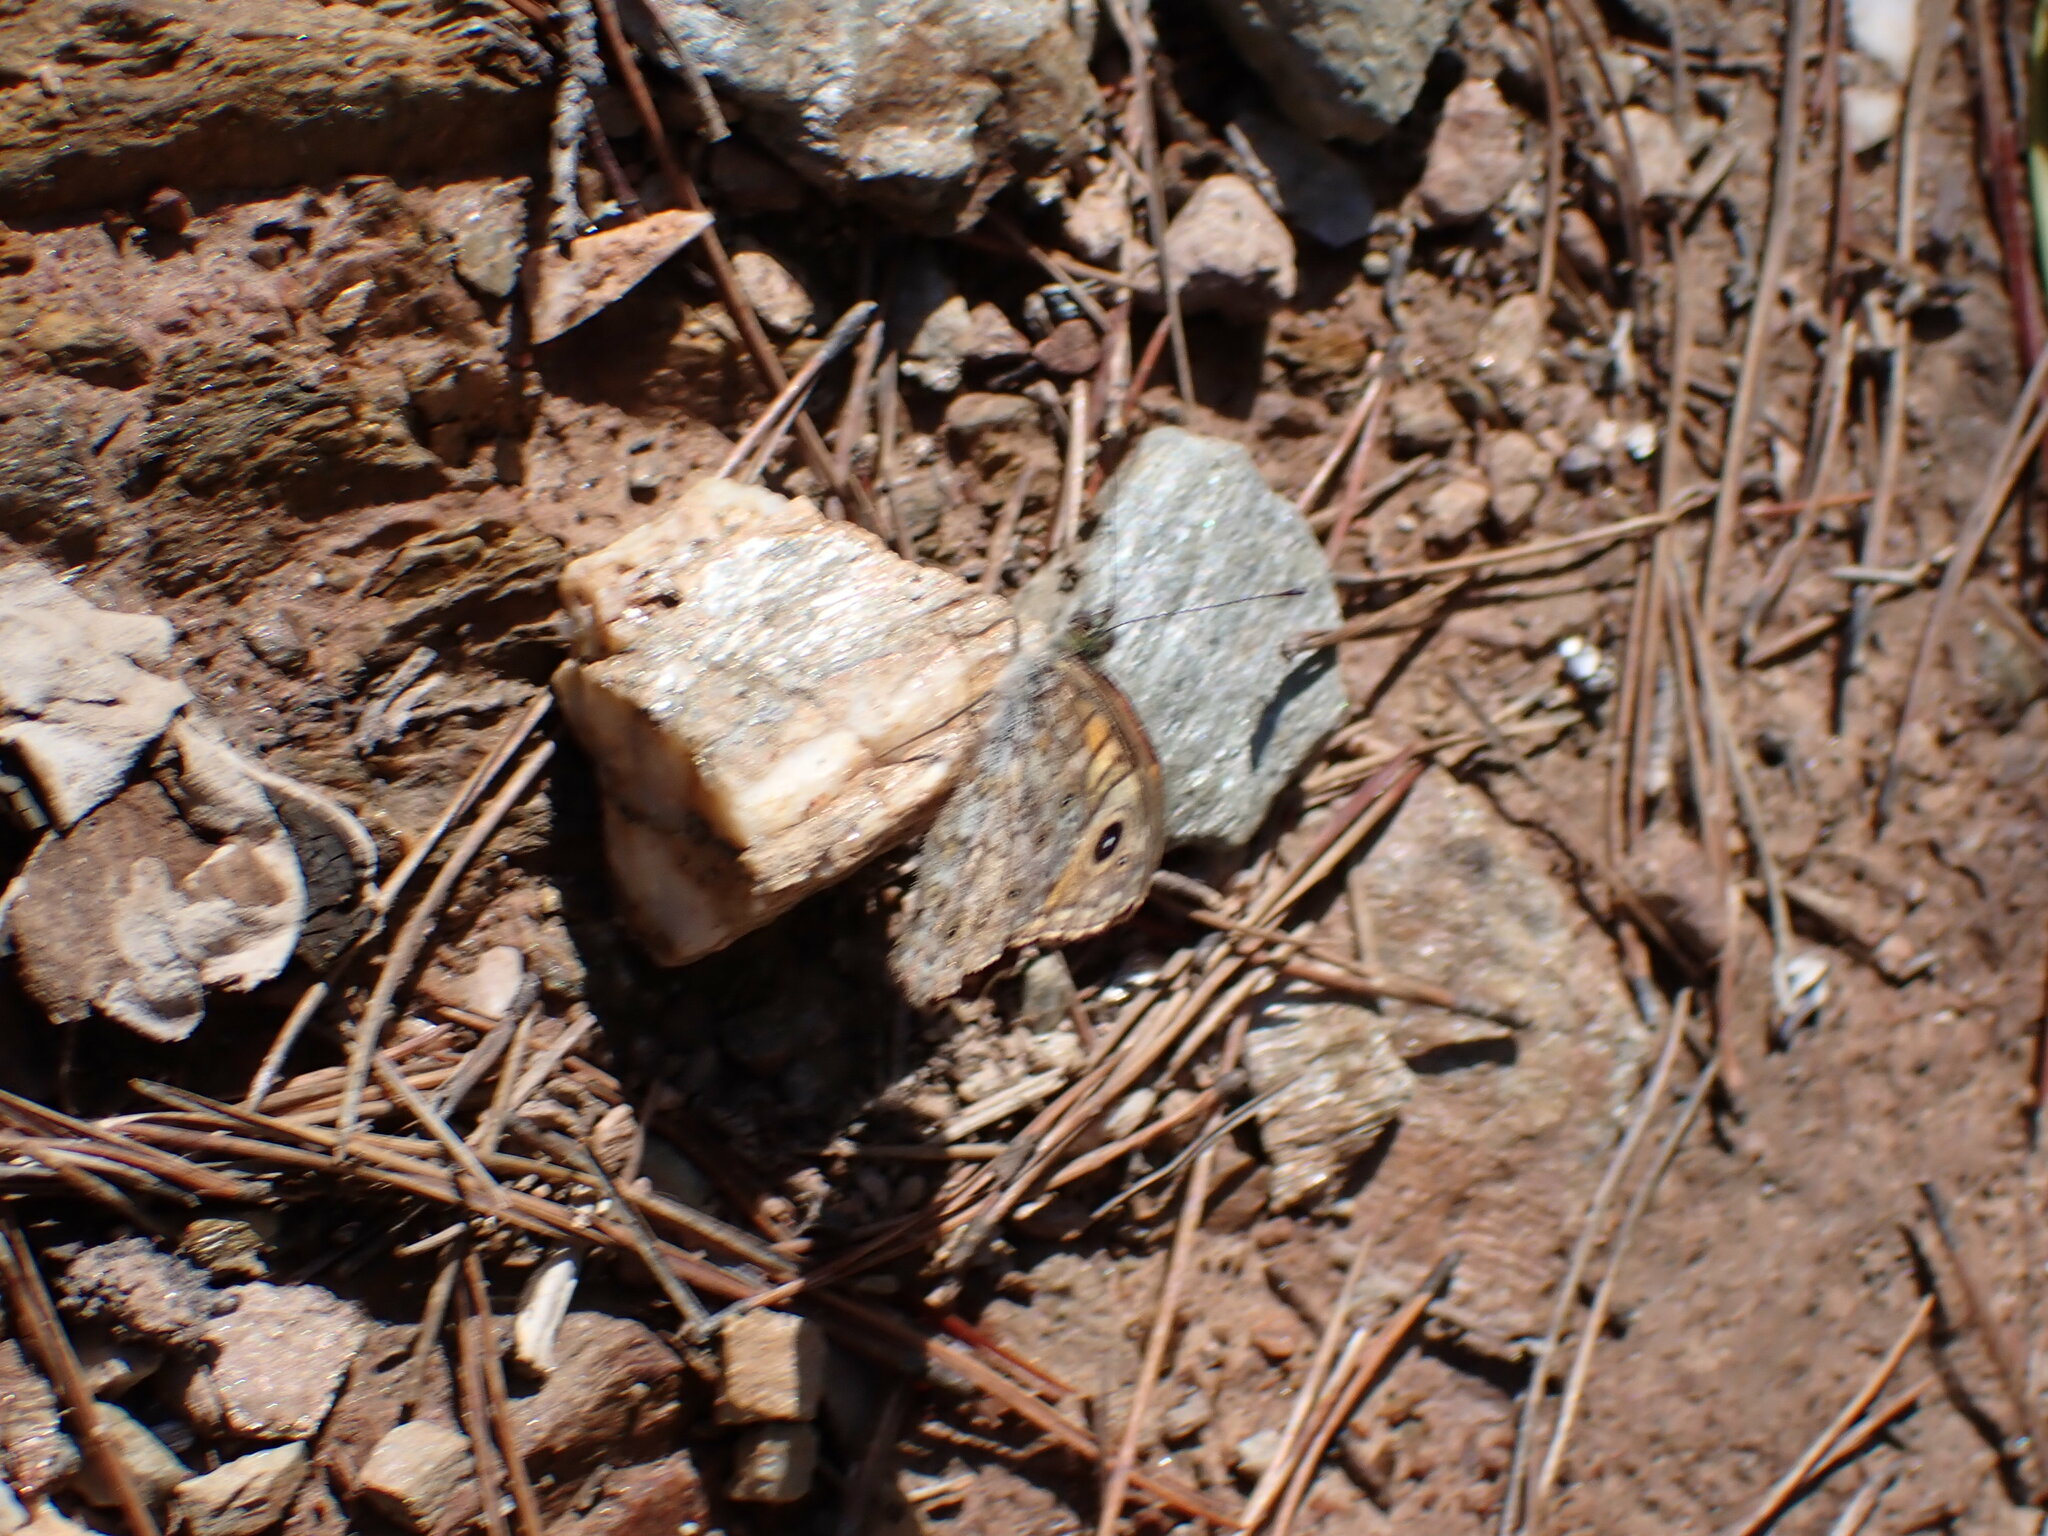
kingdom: Animalia
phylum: Arthropoda
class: Insecta
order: Lepidoptera
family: Nymphalidae
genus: Pararge
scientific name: Pararge Lasiommata megera
